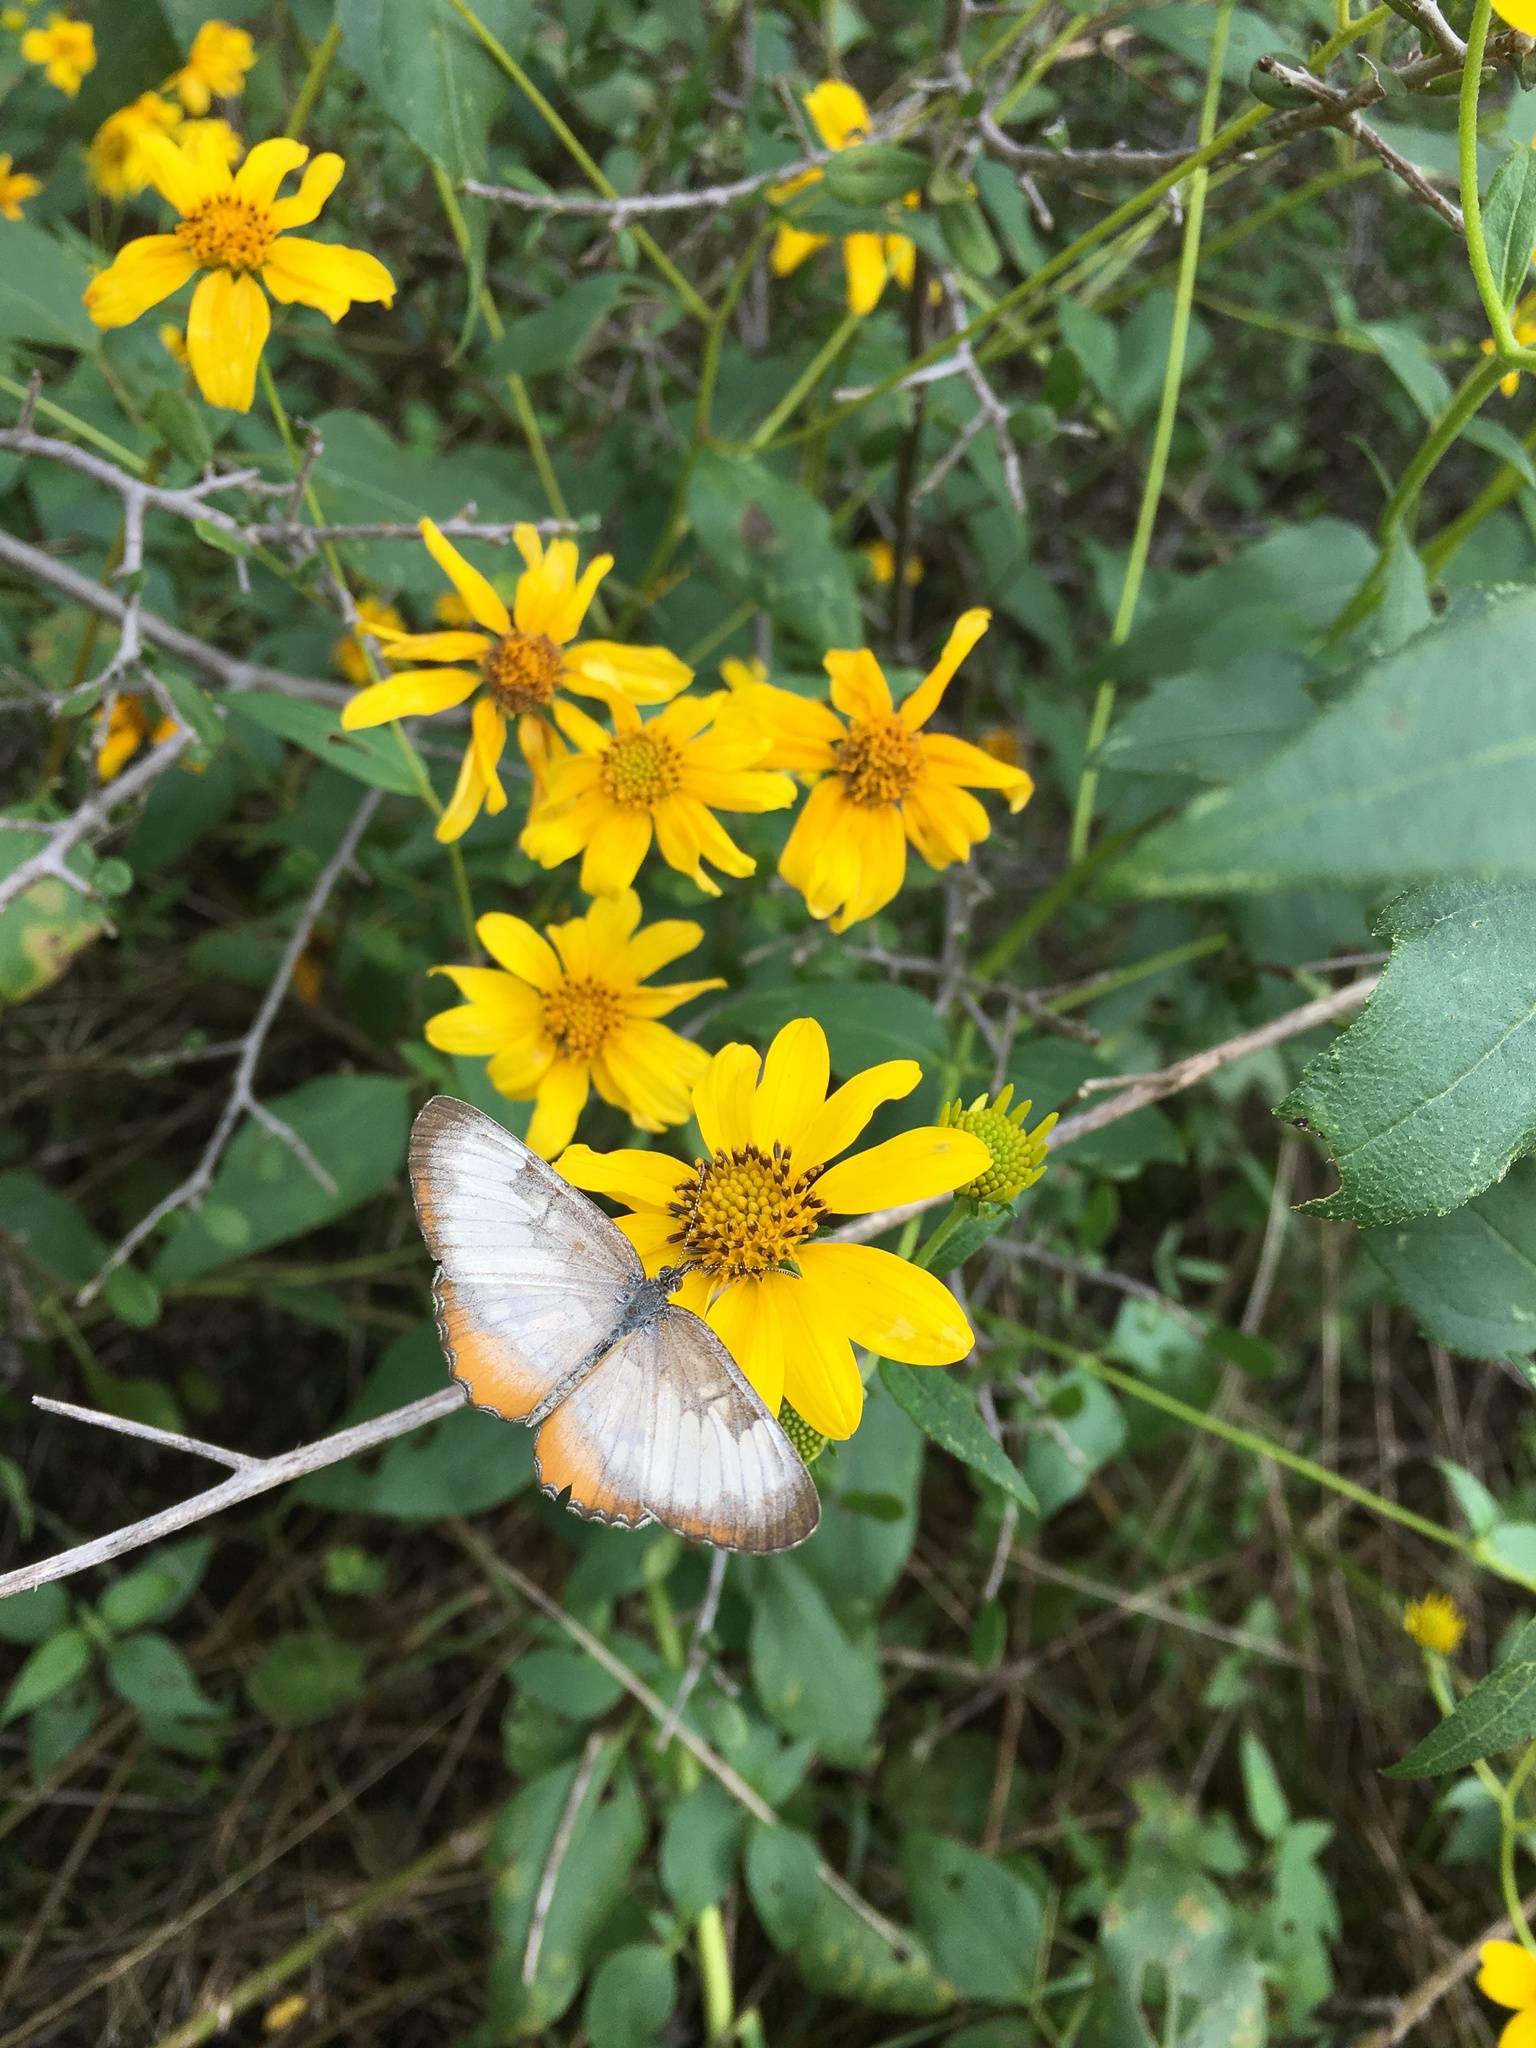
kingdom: Animalia
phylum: Arthropoda
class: Insecta
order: Lepidoptera
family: Nymphalidae
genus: Mestra
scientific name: Mestra amymone
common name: Common mestra
